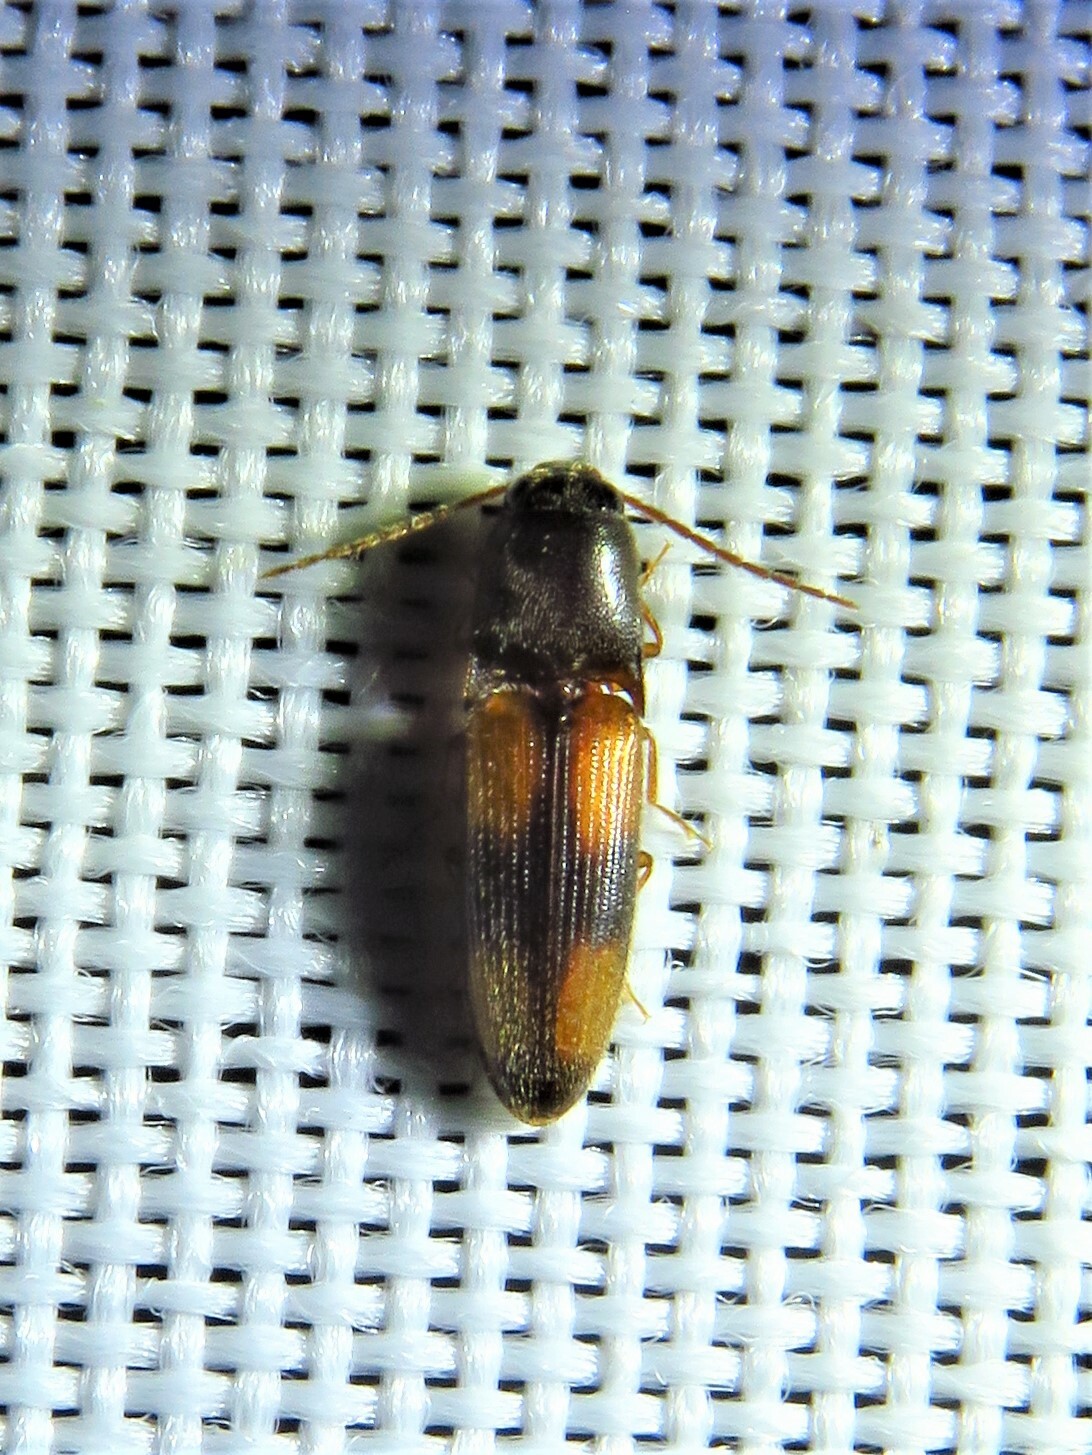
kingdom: Animalia
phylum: Arthropoda
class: Insecta
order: Coleoptera
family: Elateridae
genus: Anchastus
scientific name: Anchastus binus
